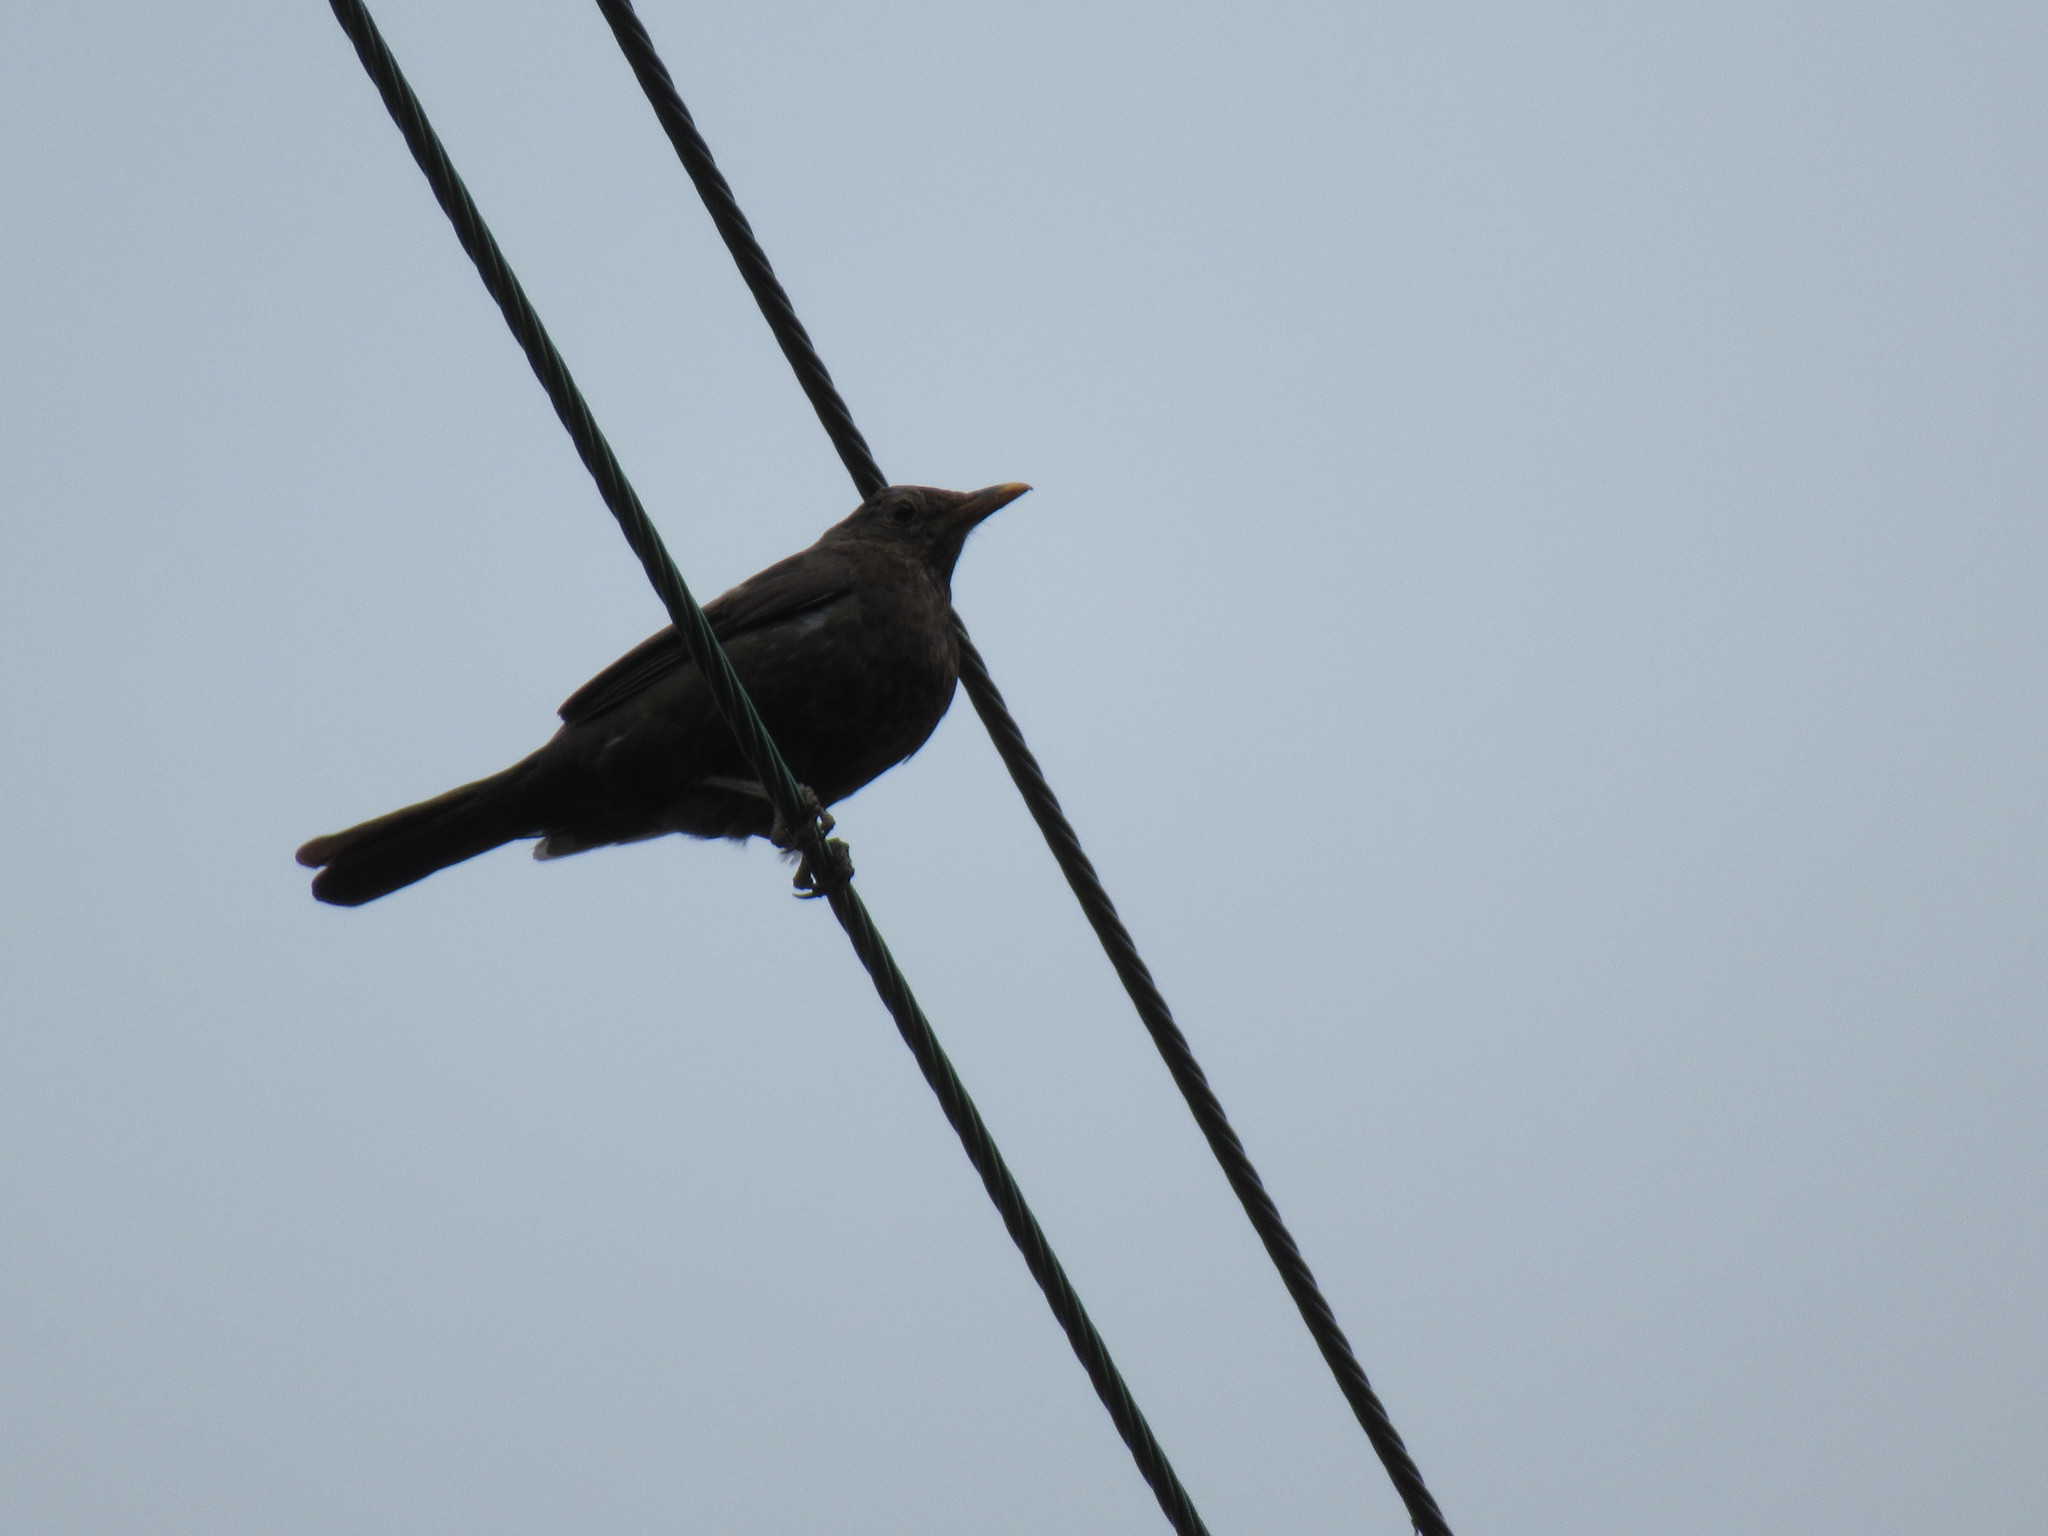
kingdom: Animalia
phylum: Chordata
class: Aves
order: Passeriformes
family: Turdidae
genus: Turdus
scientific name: Turdus merula
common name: Common blackbird
